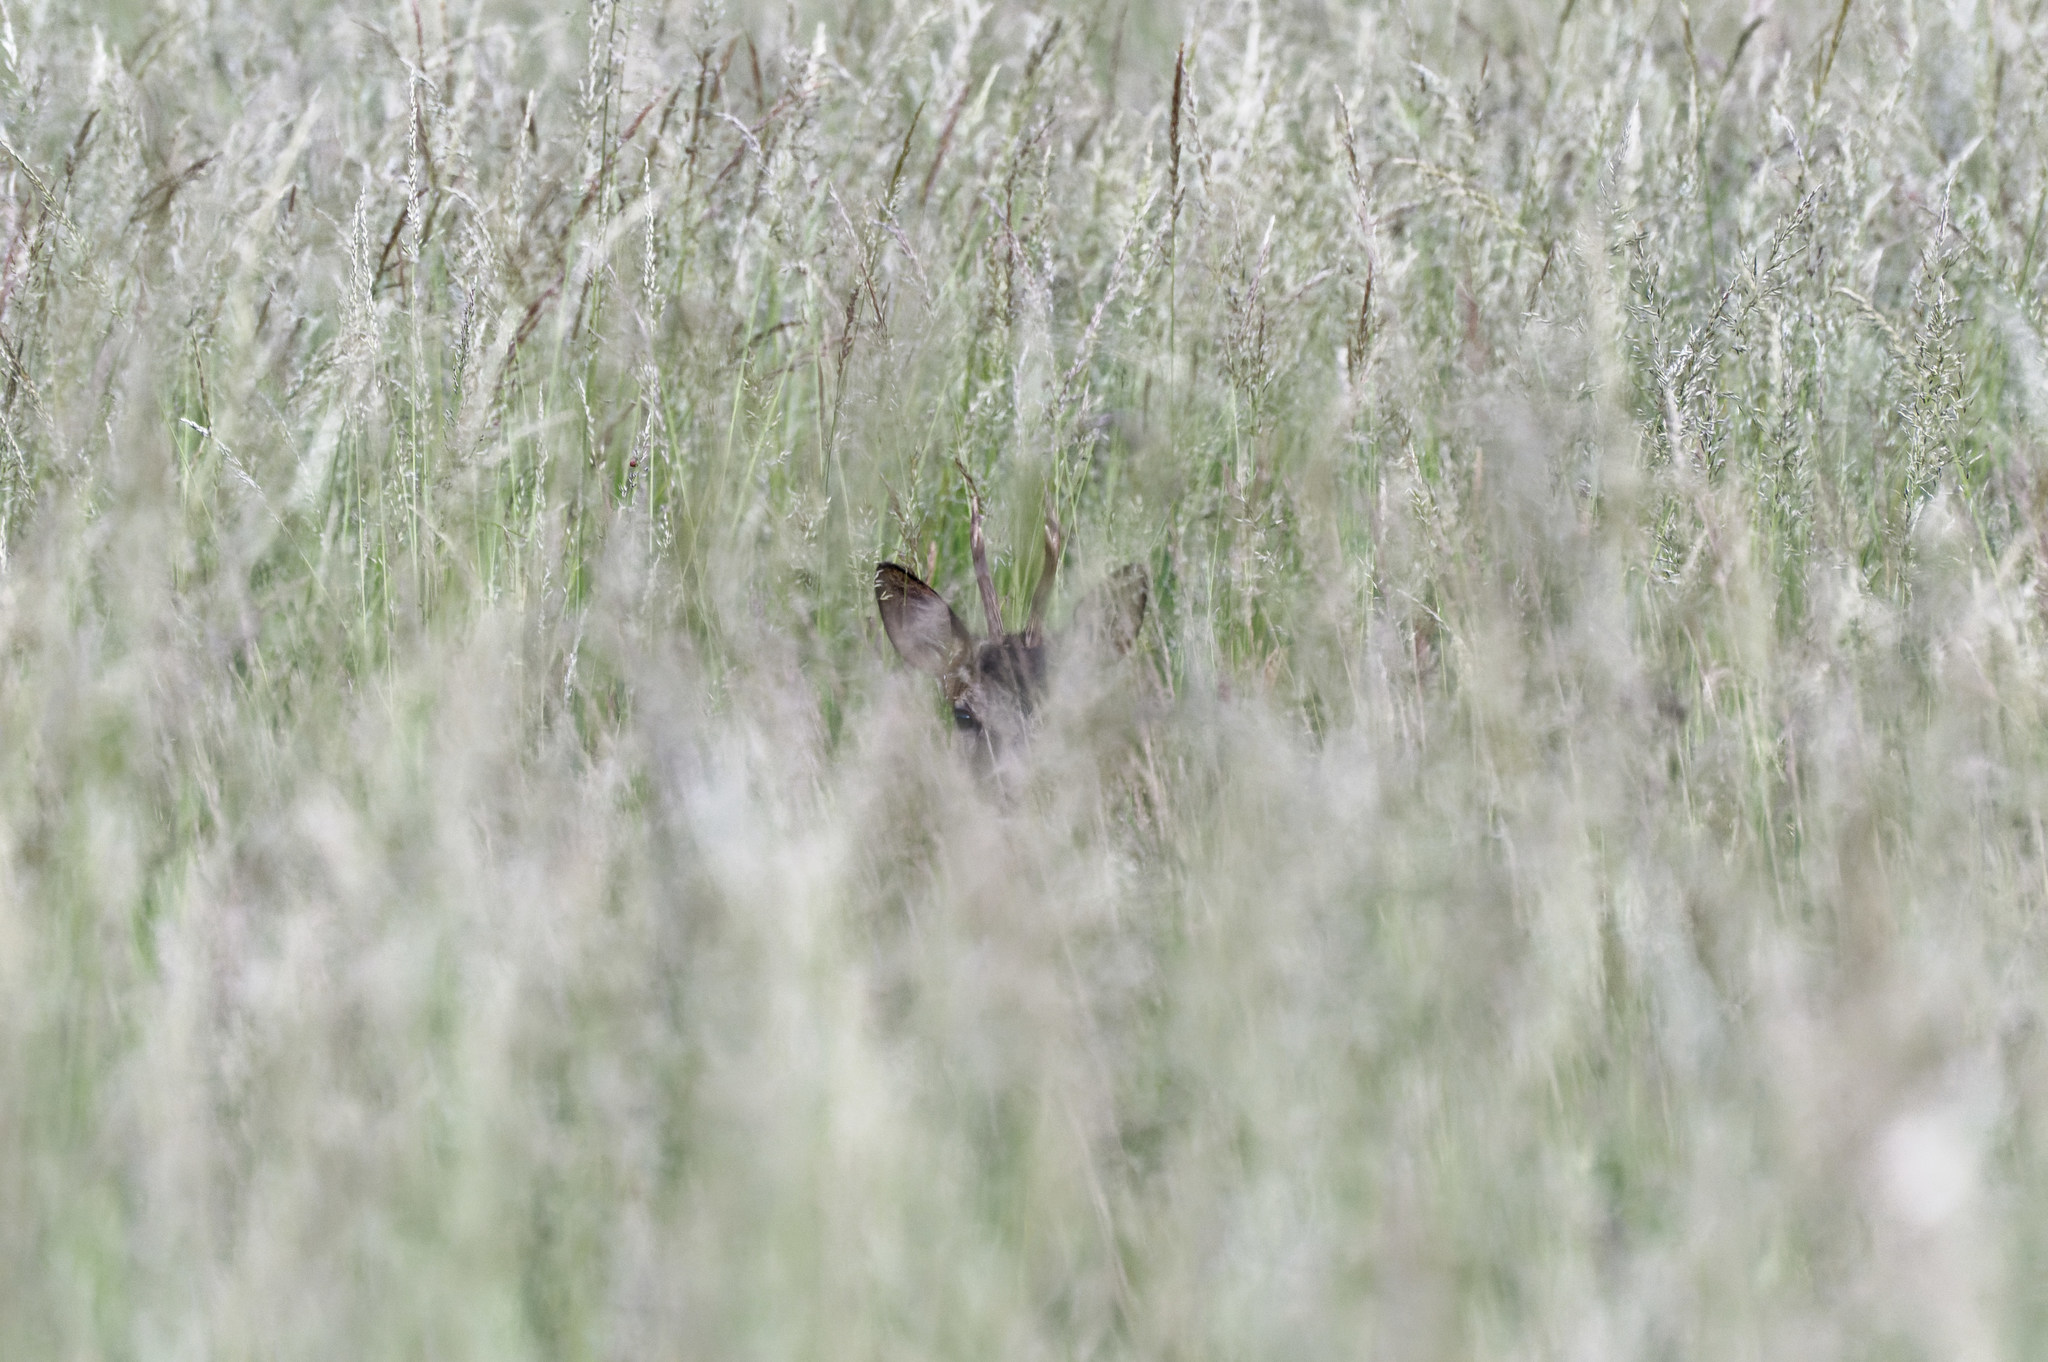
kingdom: Animalia
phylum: Chordata
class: Mammalia
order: Artiodactyla
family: Cervidae
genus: Capreolus
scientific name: Capreolus capreolus
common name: Western roe deer
